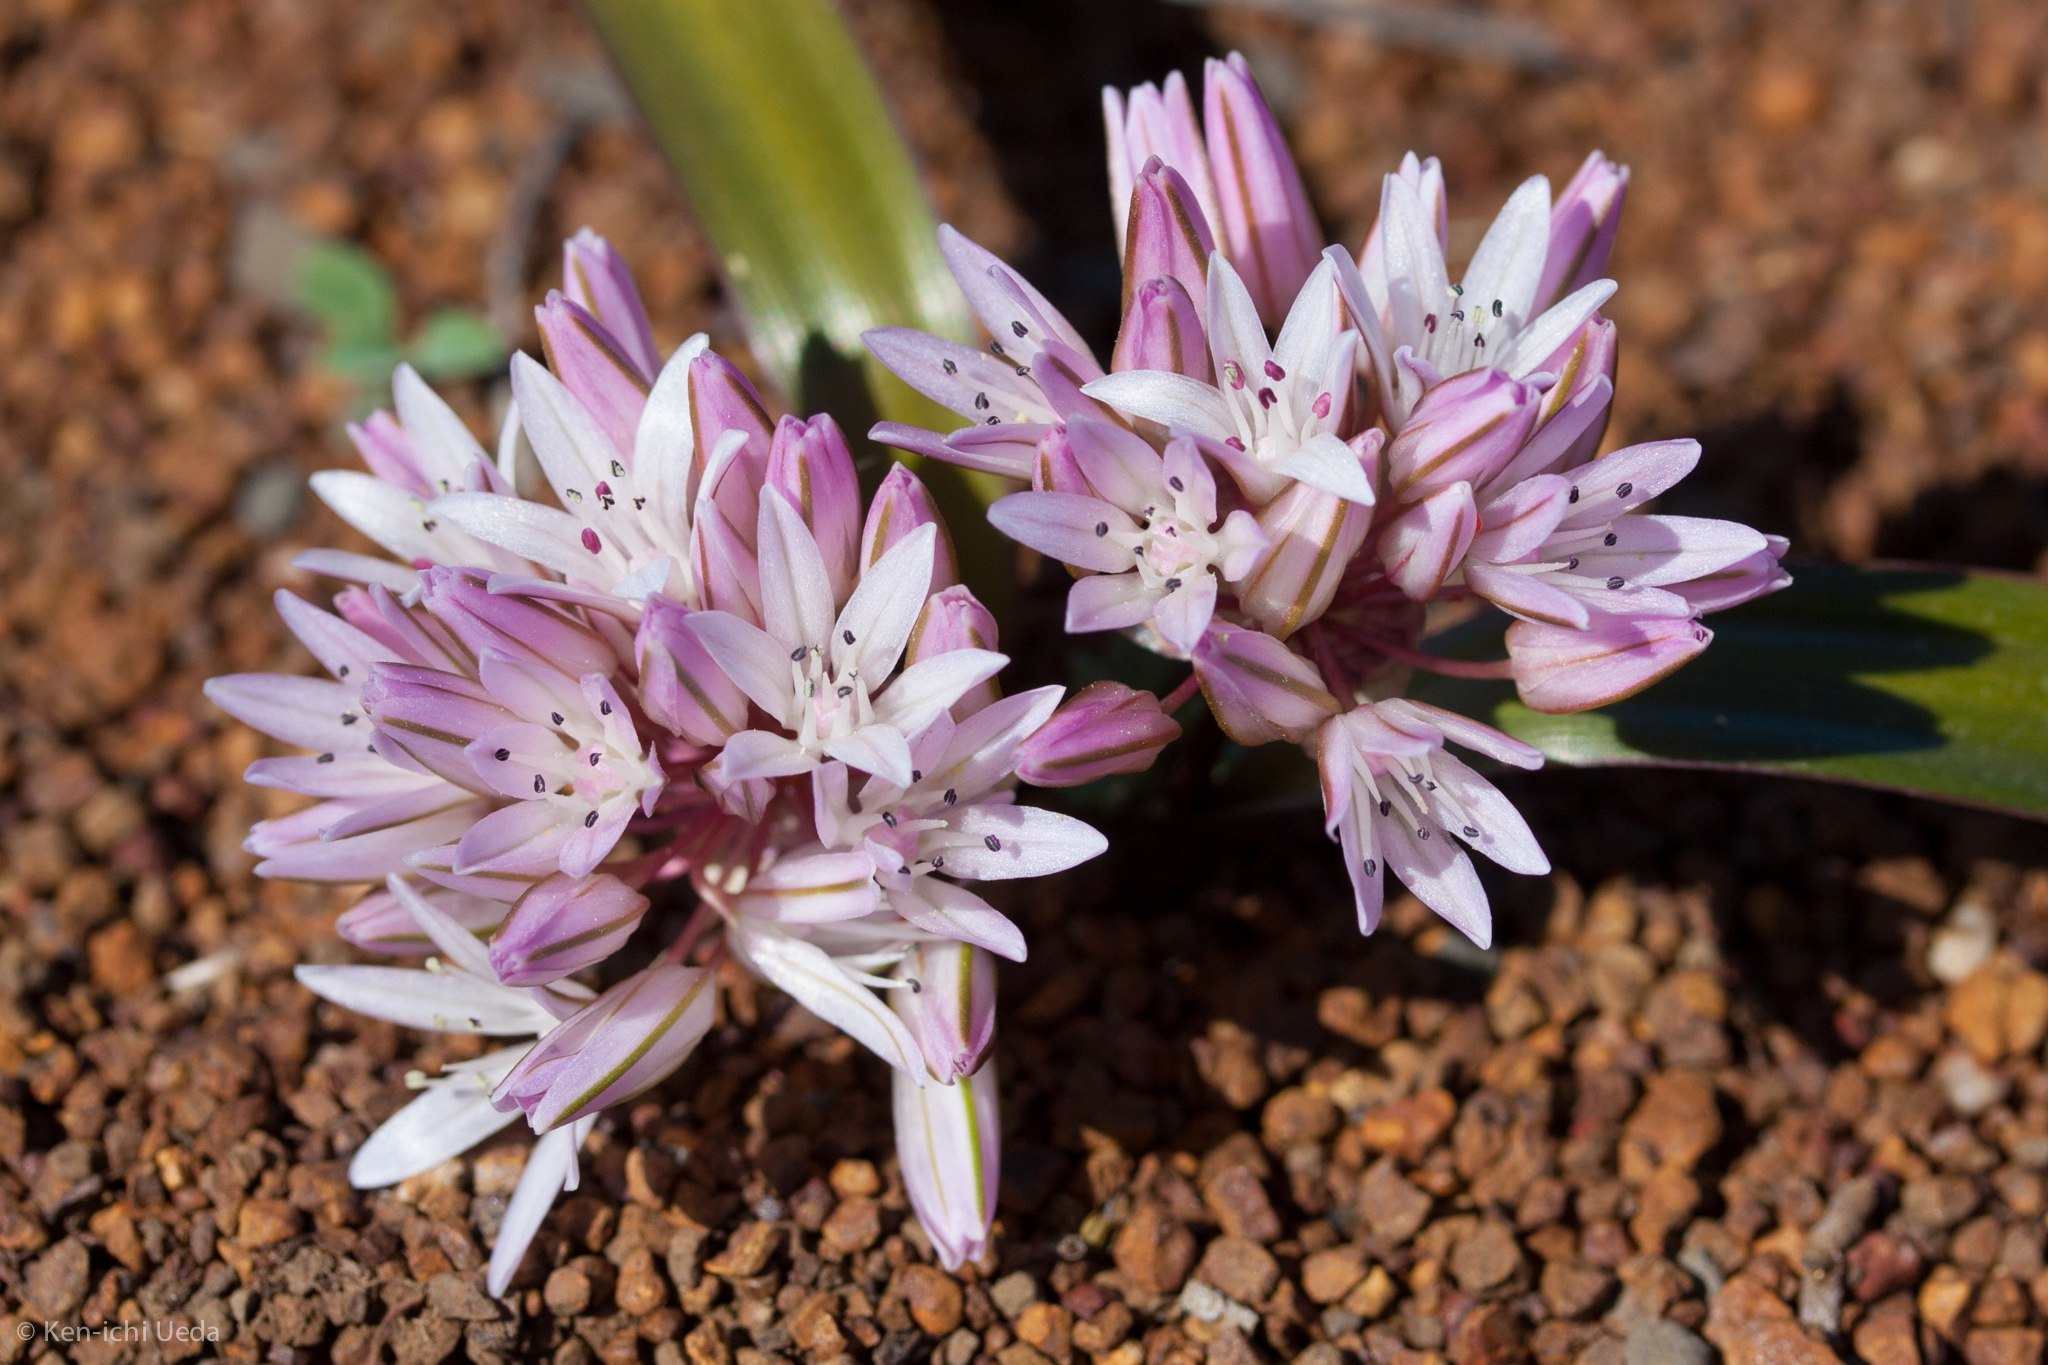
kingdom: Plantae
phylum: Tracheophyta
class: Liliopsida
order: Asparagales
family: Amaryllidaceae
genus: Allium
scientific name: Allium cratericola
